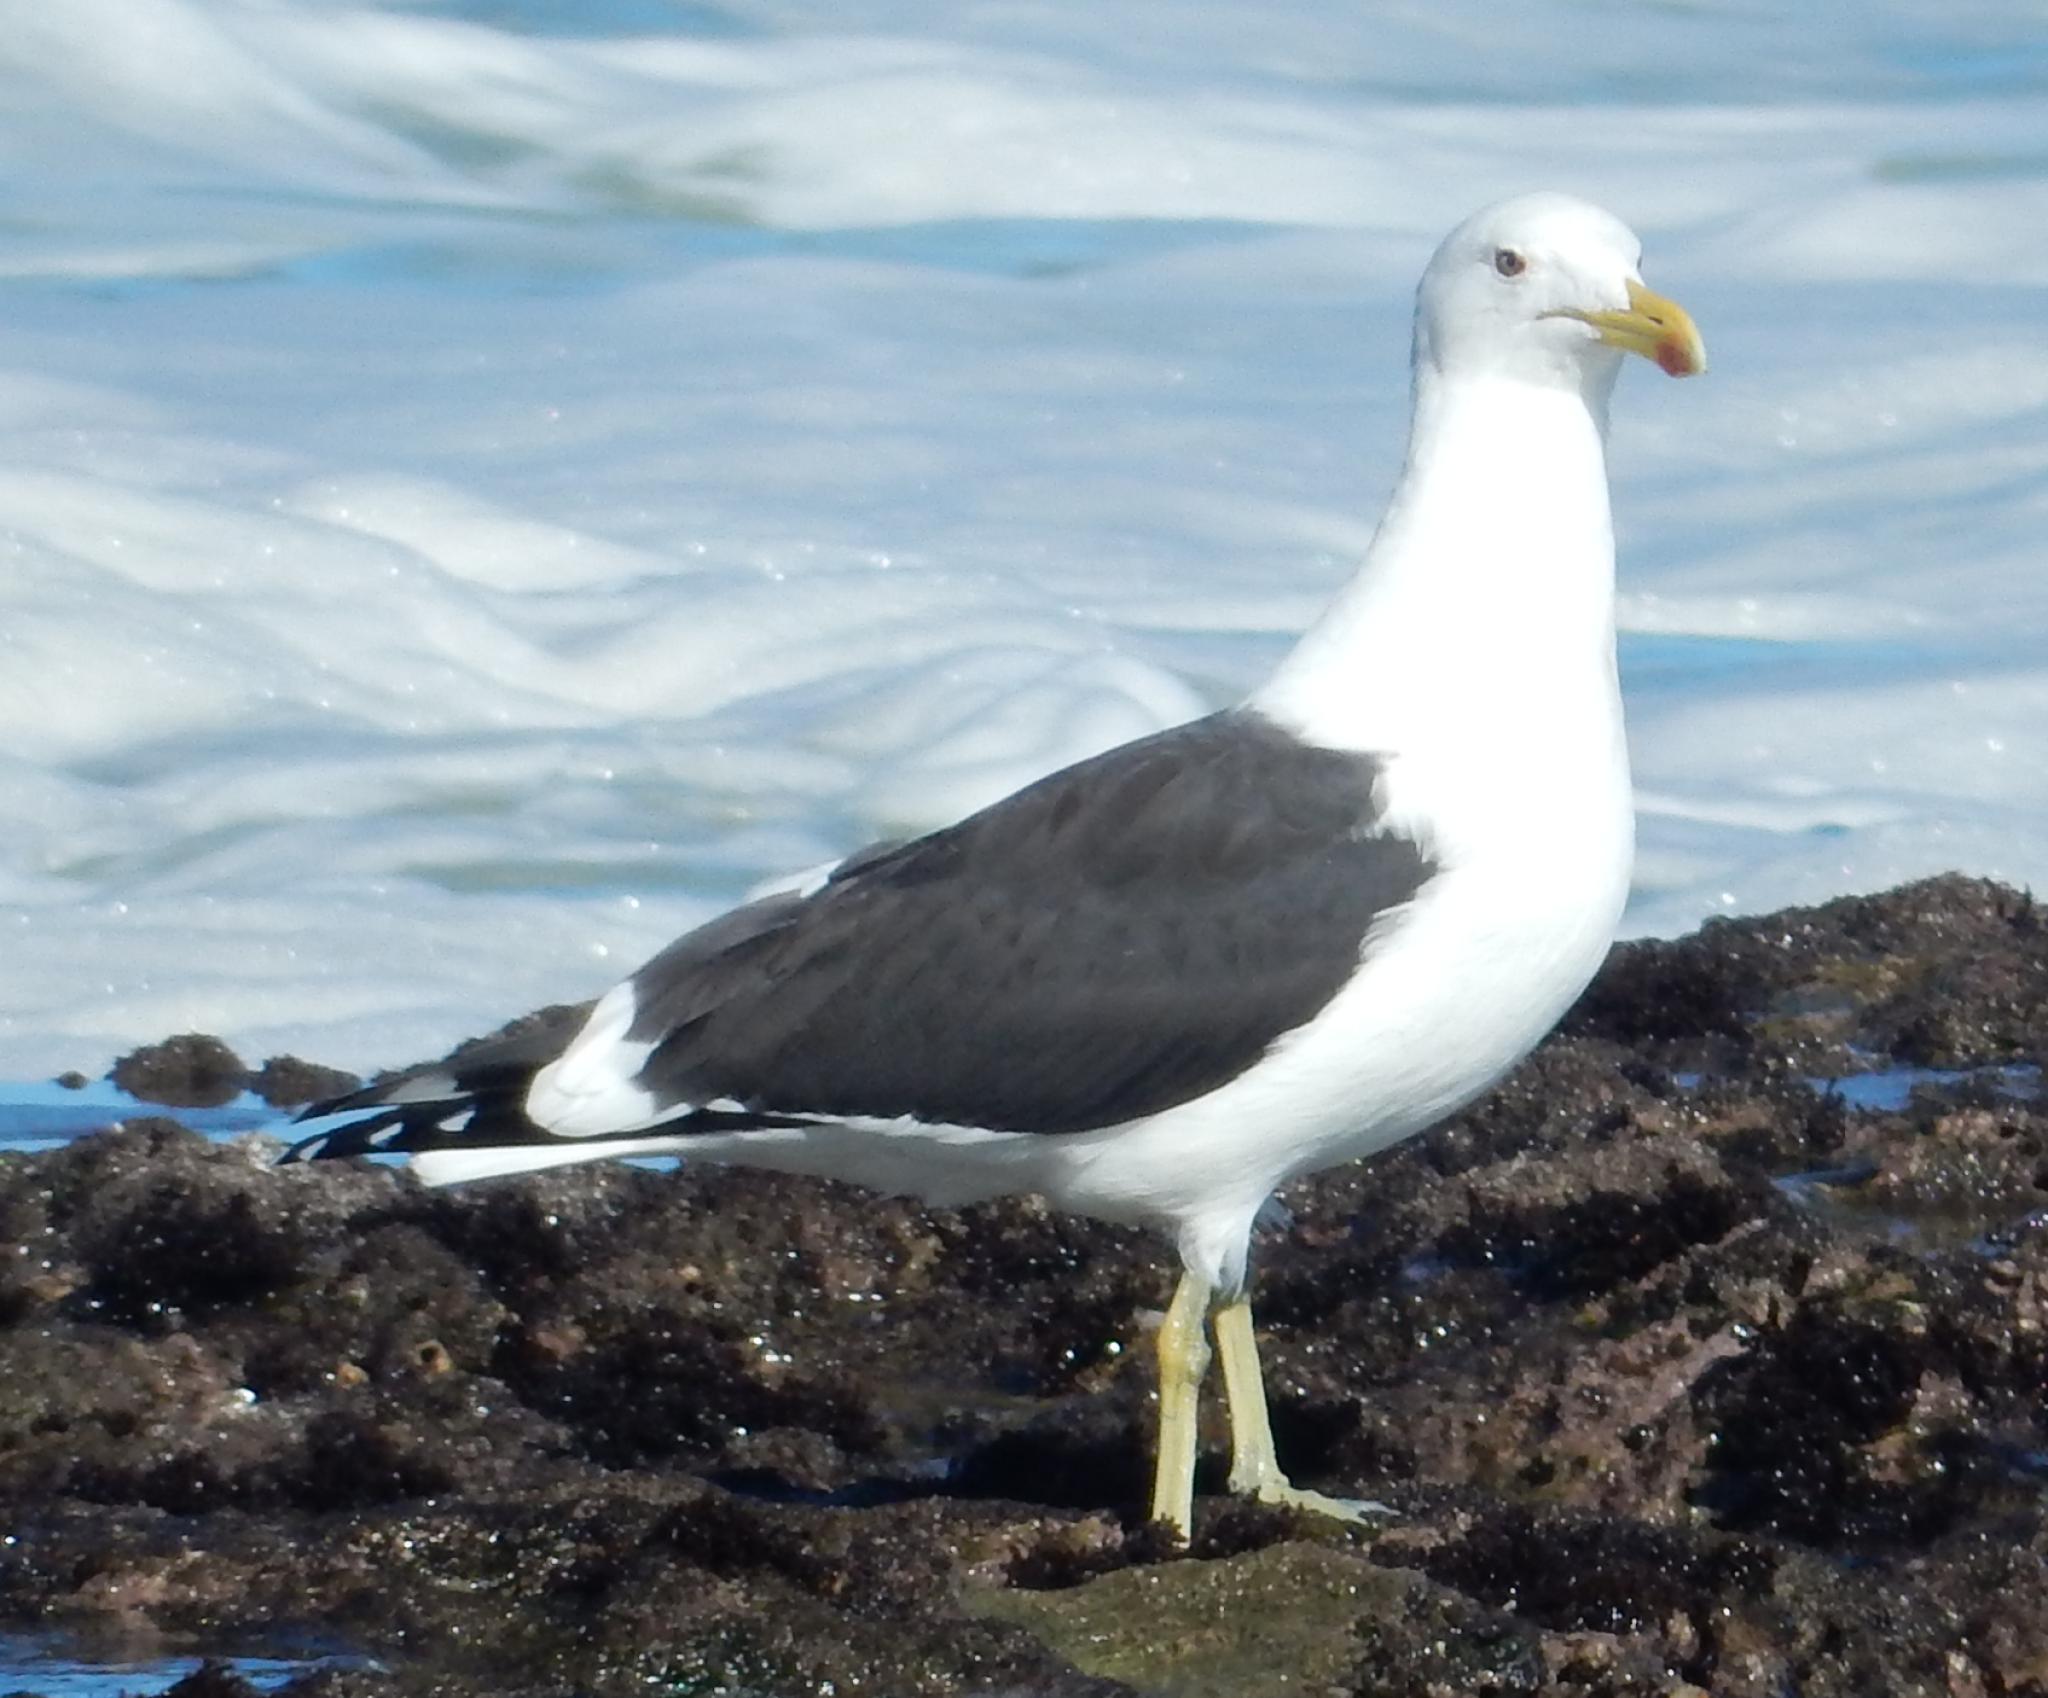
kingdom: Animalia
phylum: Chordata
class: Aves
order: Charadriiformes
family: Laridae
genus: Larus
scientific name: Larus dominicanus
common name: Kelp gull
